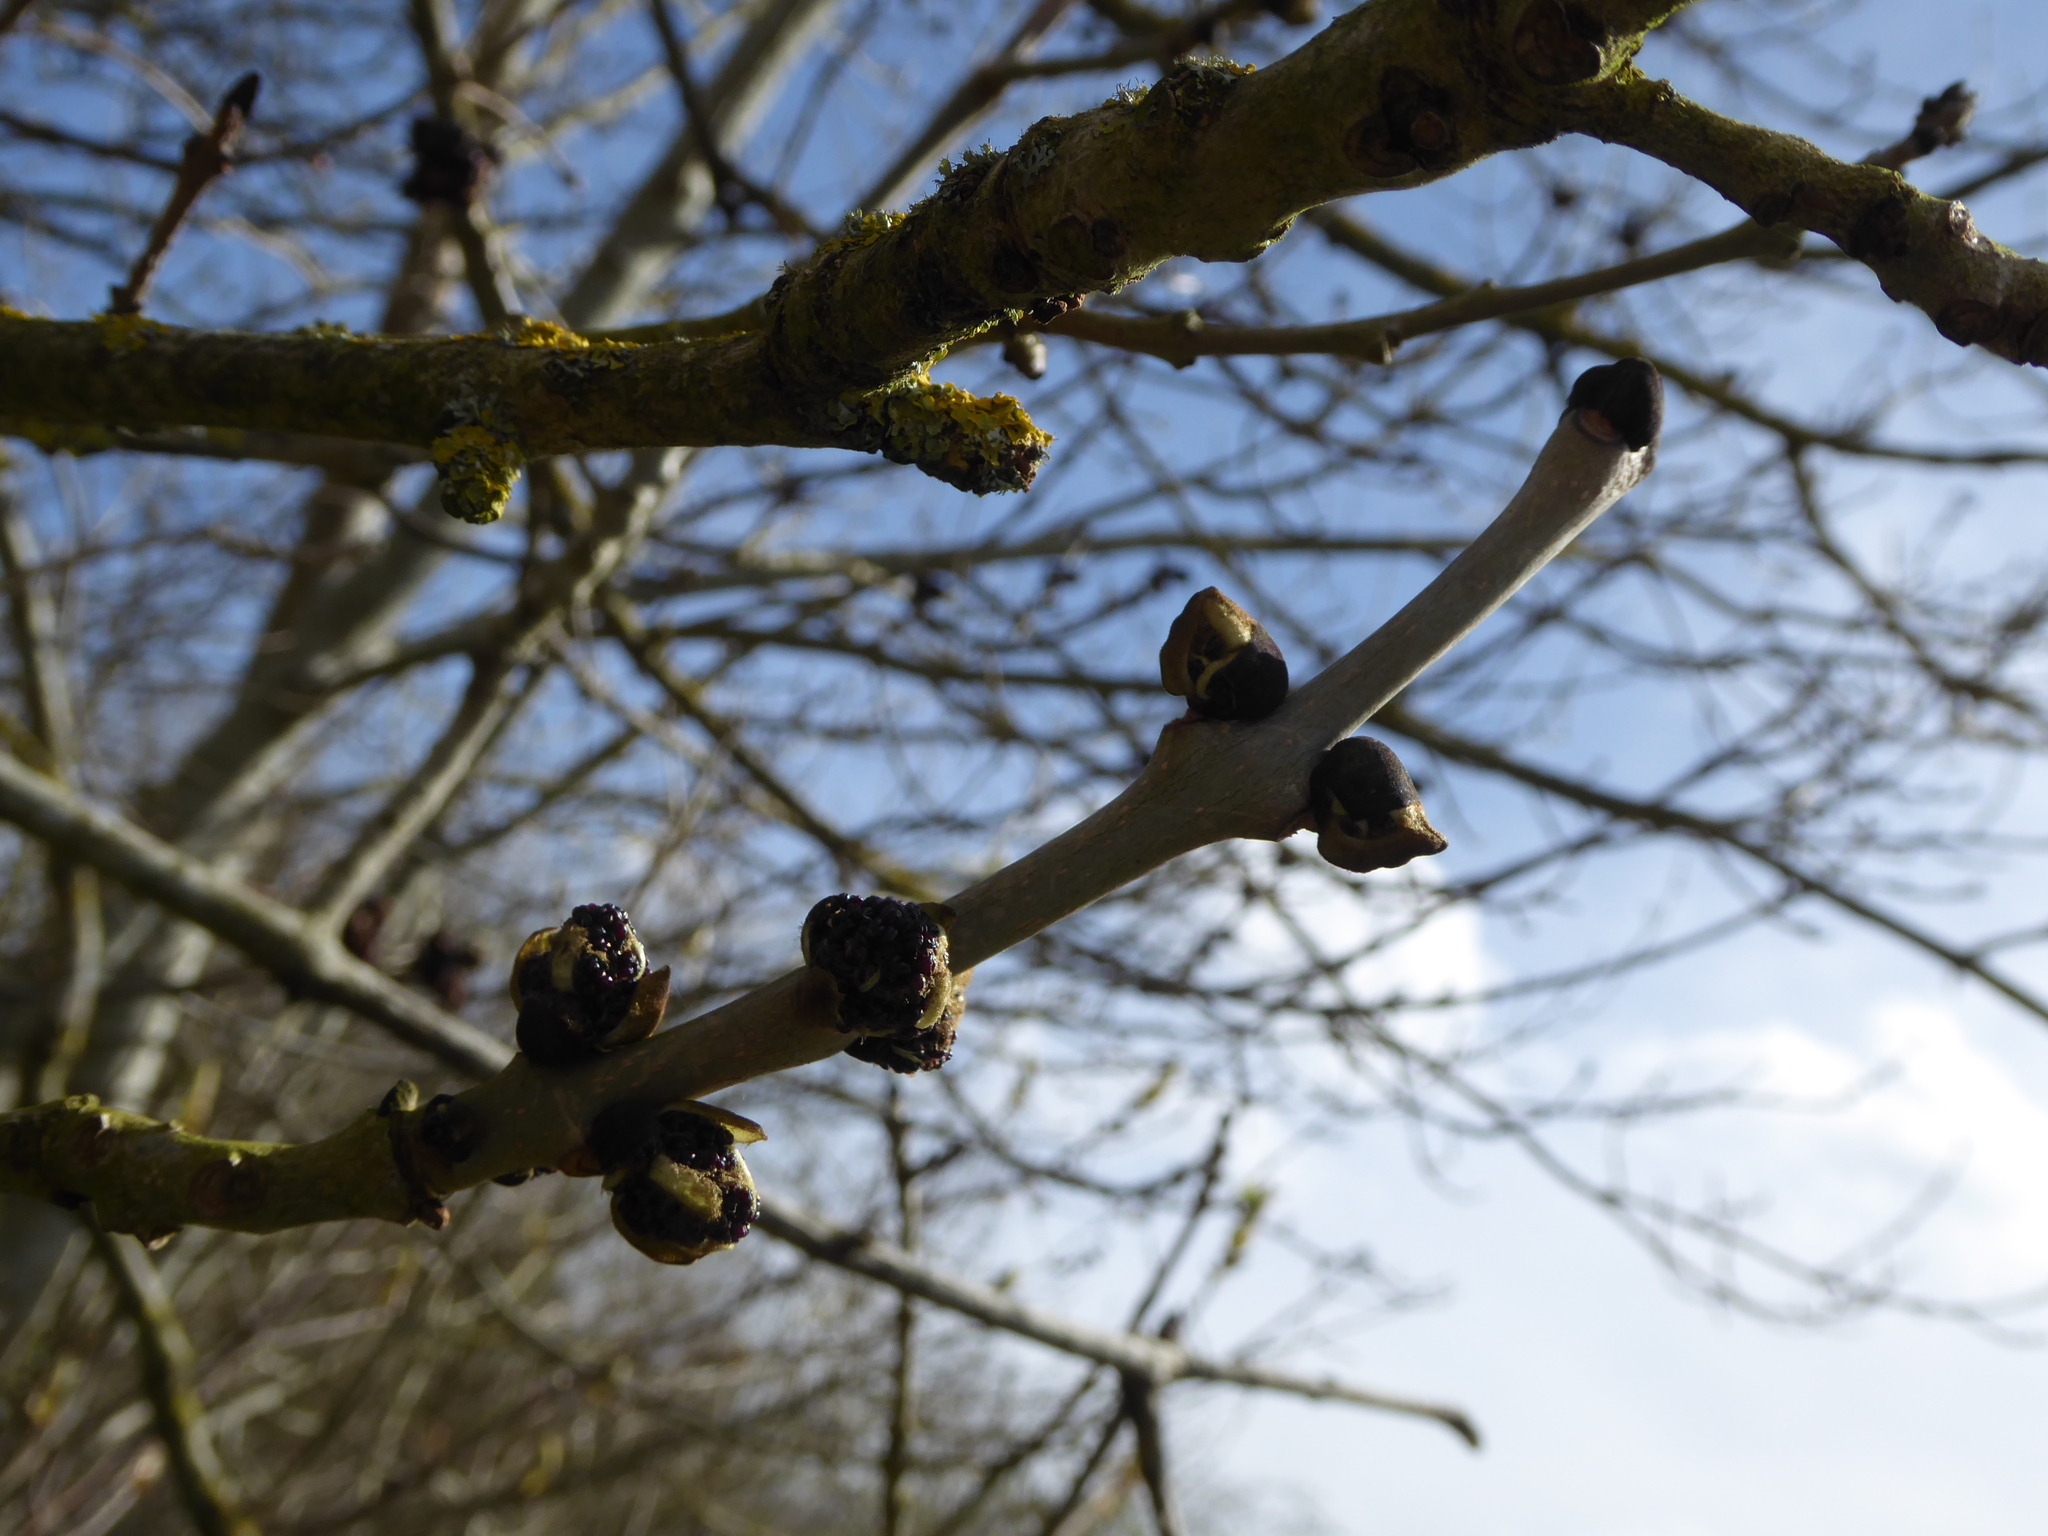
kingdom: Plantae
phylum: Tracheophyta
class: Magnoliopsida
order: Lamiales
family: Oleaceae
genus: Fraxinus
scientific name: Fraxinus excelsior
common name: European ash
